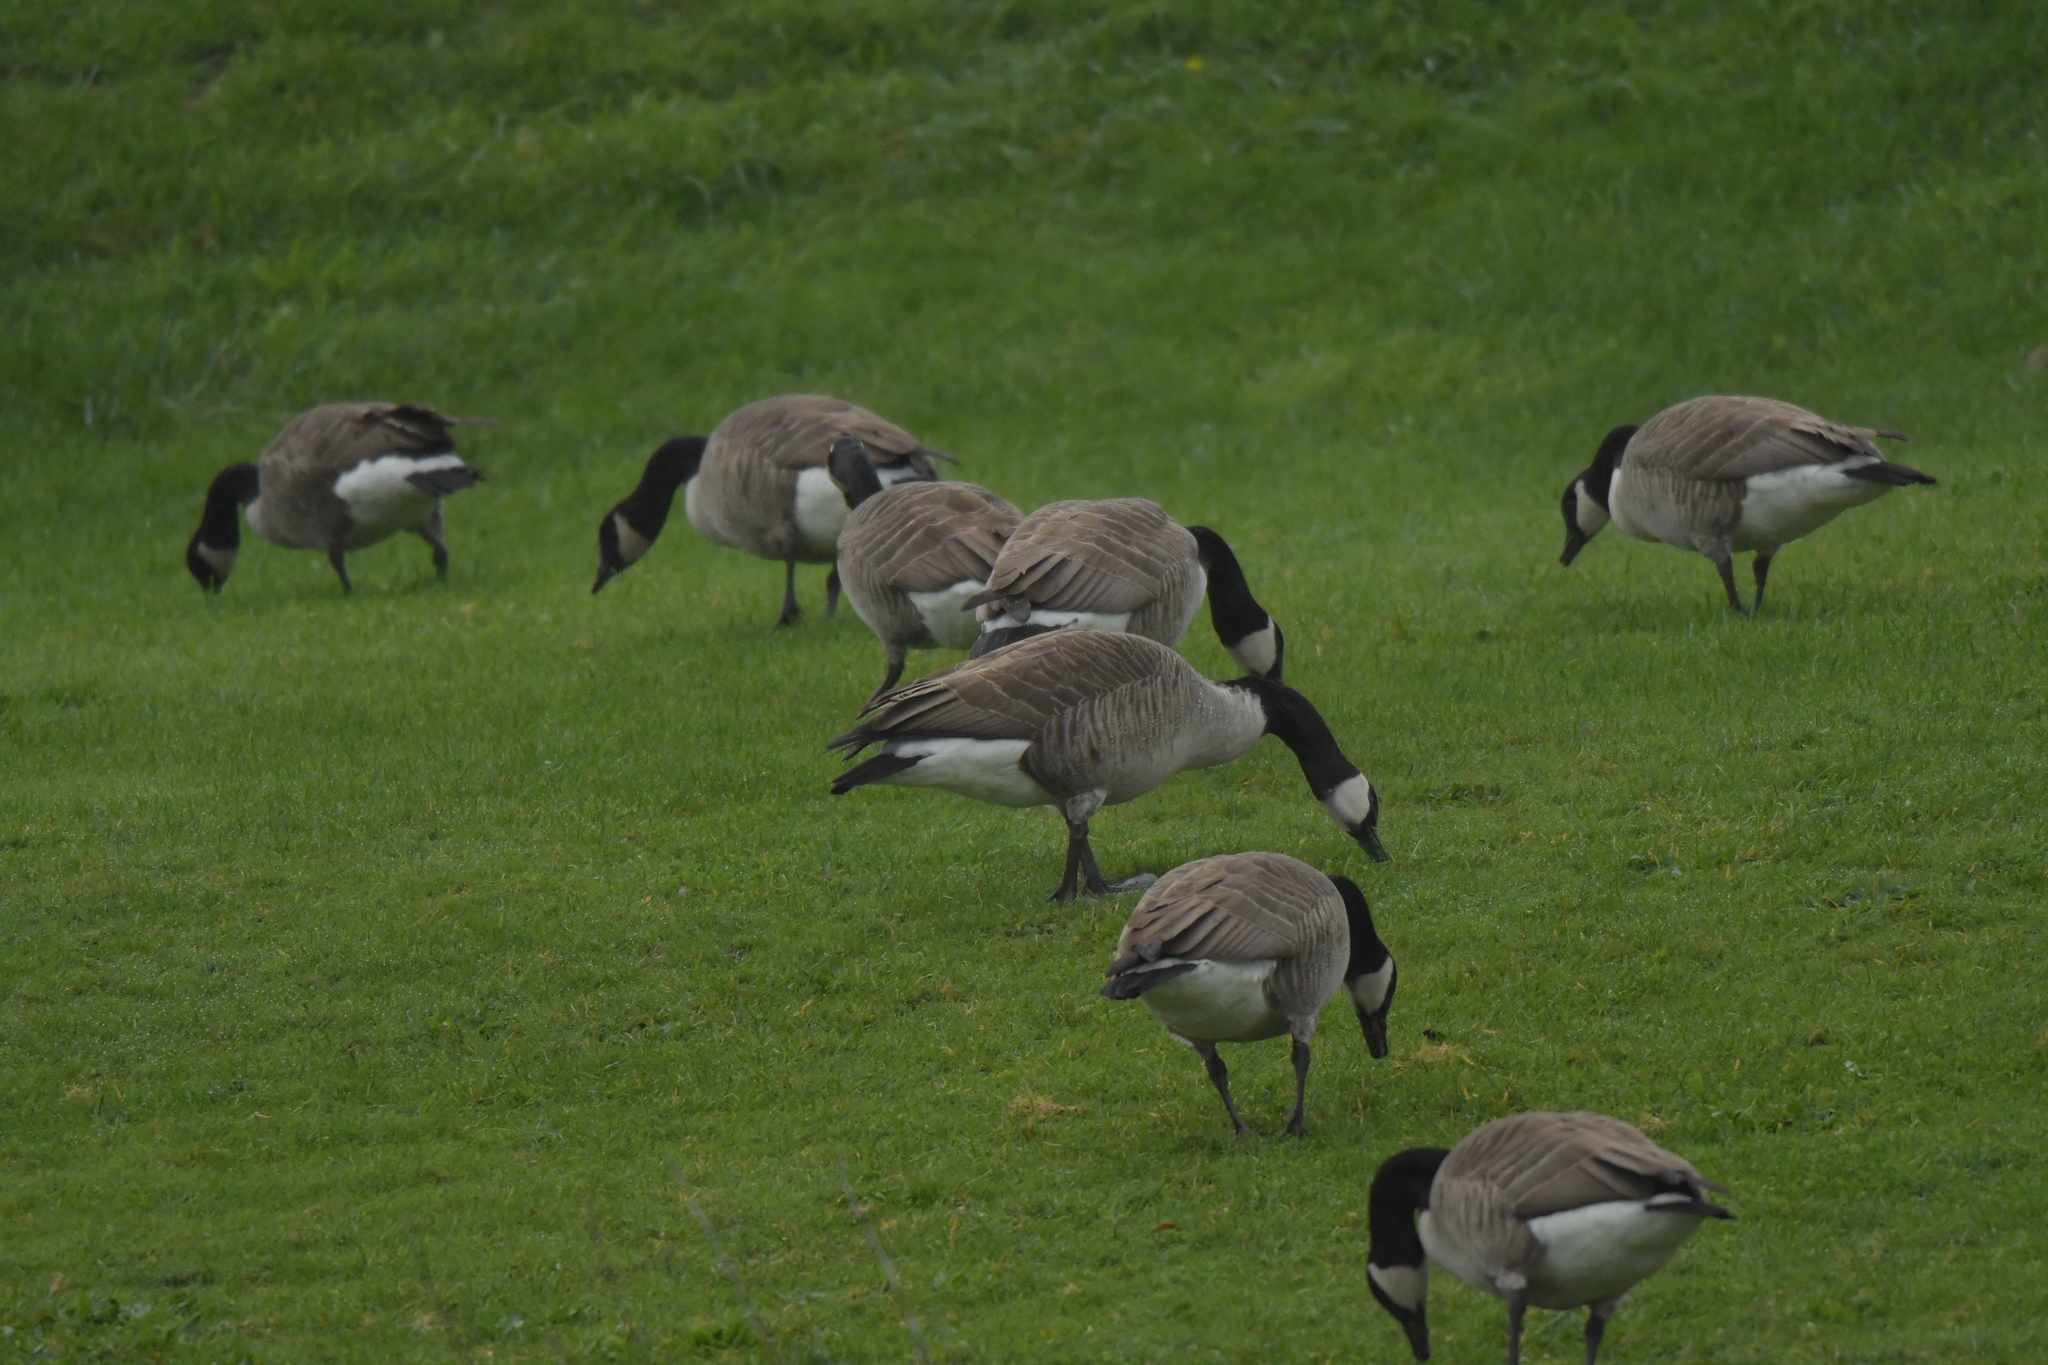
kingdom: Animalia
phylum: Chordata
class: Aves
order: Anseriformes
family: Anatidae
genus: Branta
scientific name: Branta canadensis
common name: Canada goose
